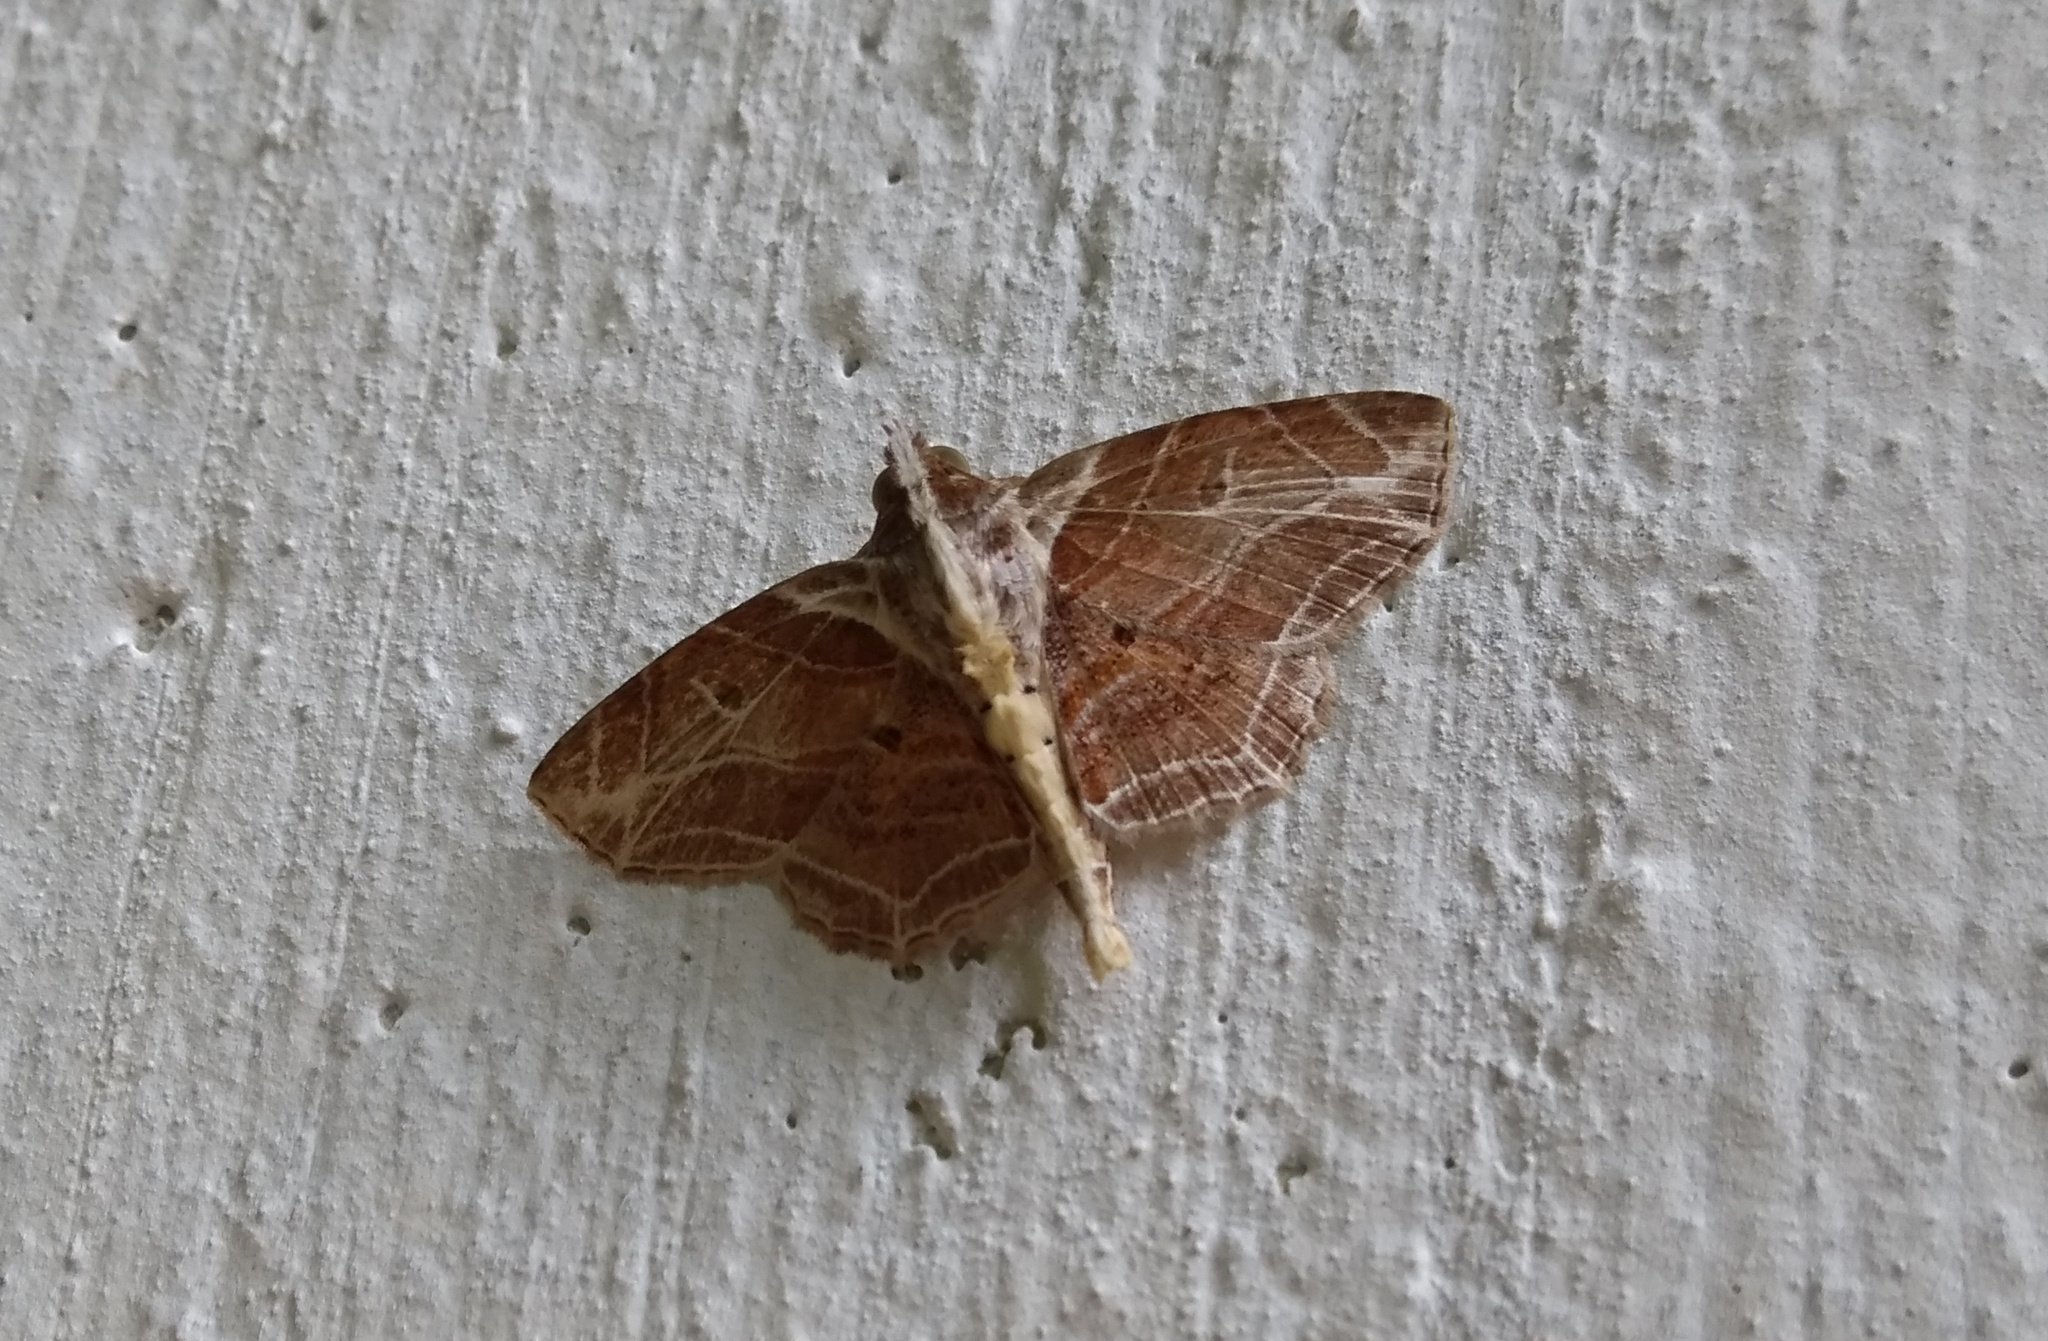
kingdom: Animalia
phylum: Arthropoda
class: Insecta
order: Lepidoptera
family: Erebidae
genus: Dolichosomastis
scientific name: Dolichosomastis dorsilinea
